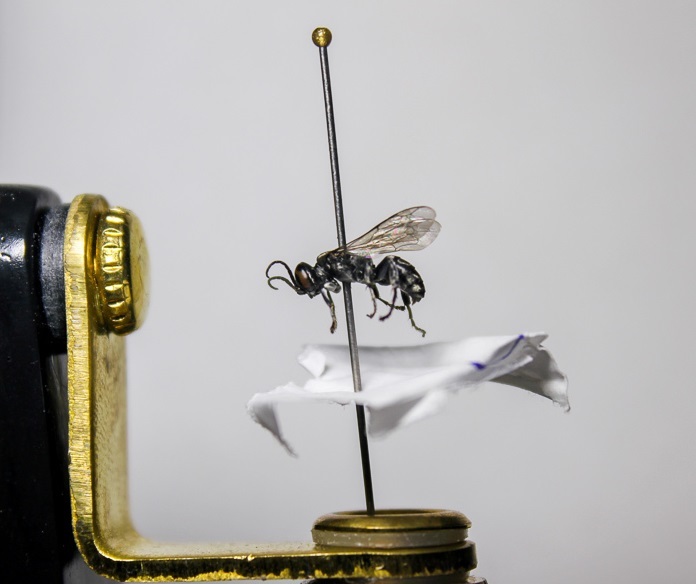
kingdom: Animalia
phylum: Arthropoda
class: Insecta
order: Hymenoptera
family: Crabronidae
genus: Tachysphex
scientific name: Tachysphex nigerrimus
